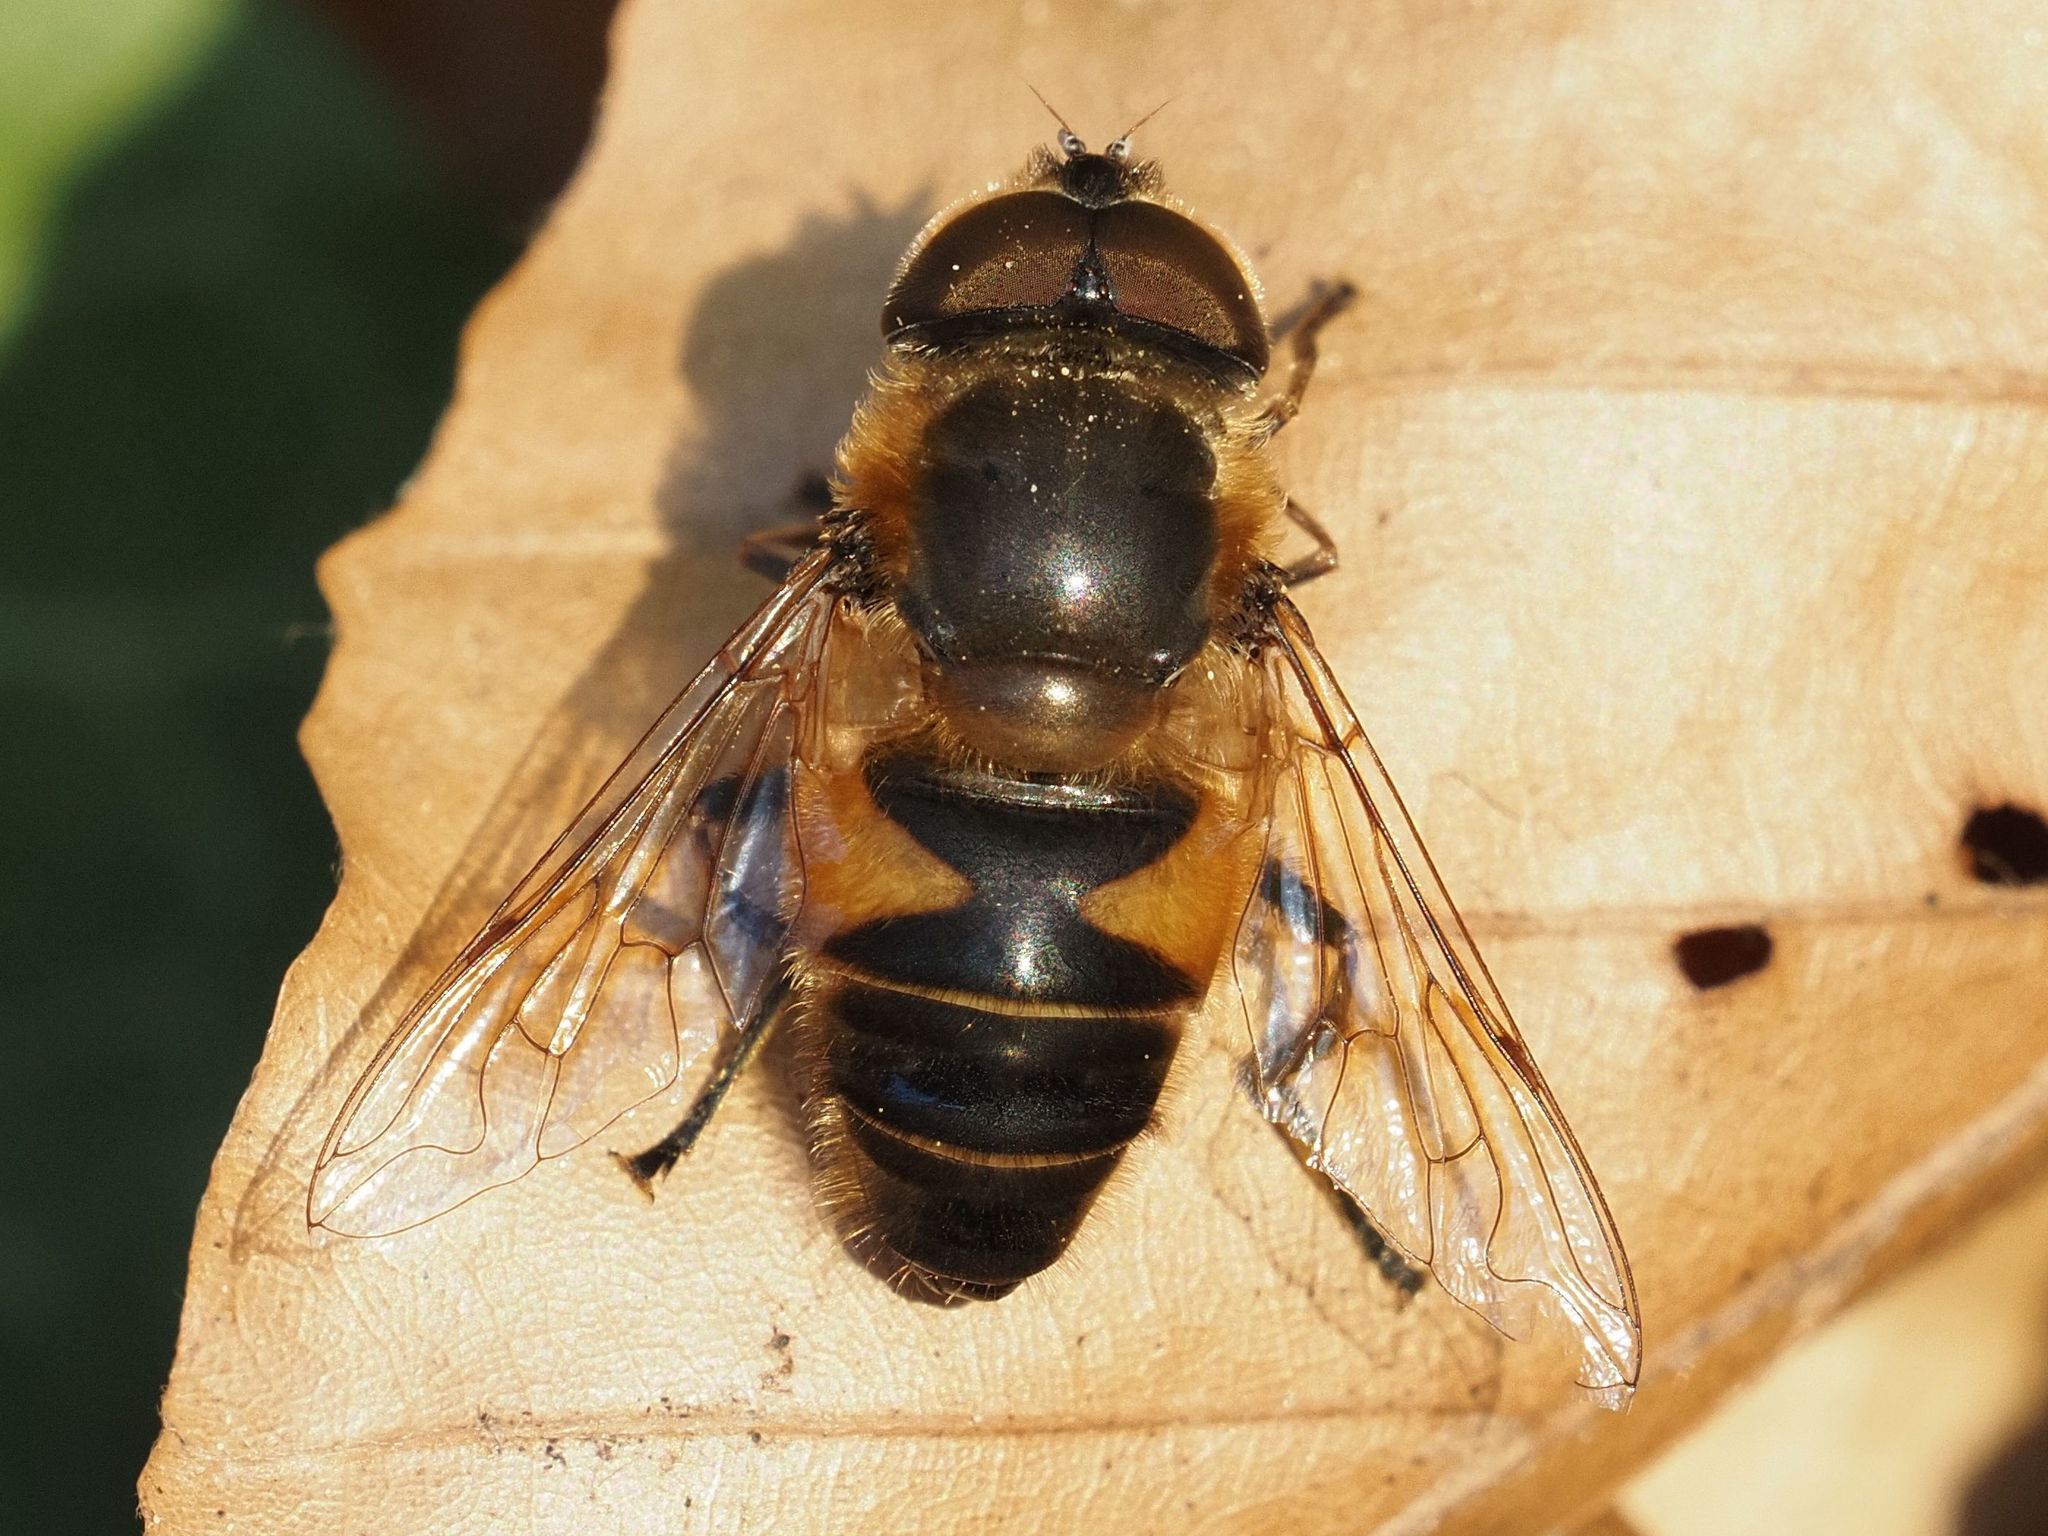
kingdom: Animalia
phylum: Arthropoda
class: Insecta
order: Diptera
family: Syrphidae
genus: Eristalis
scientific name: Eristalis pertinax
